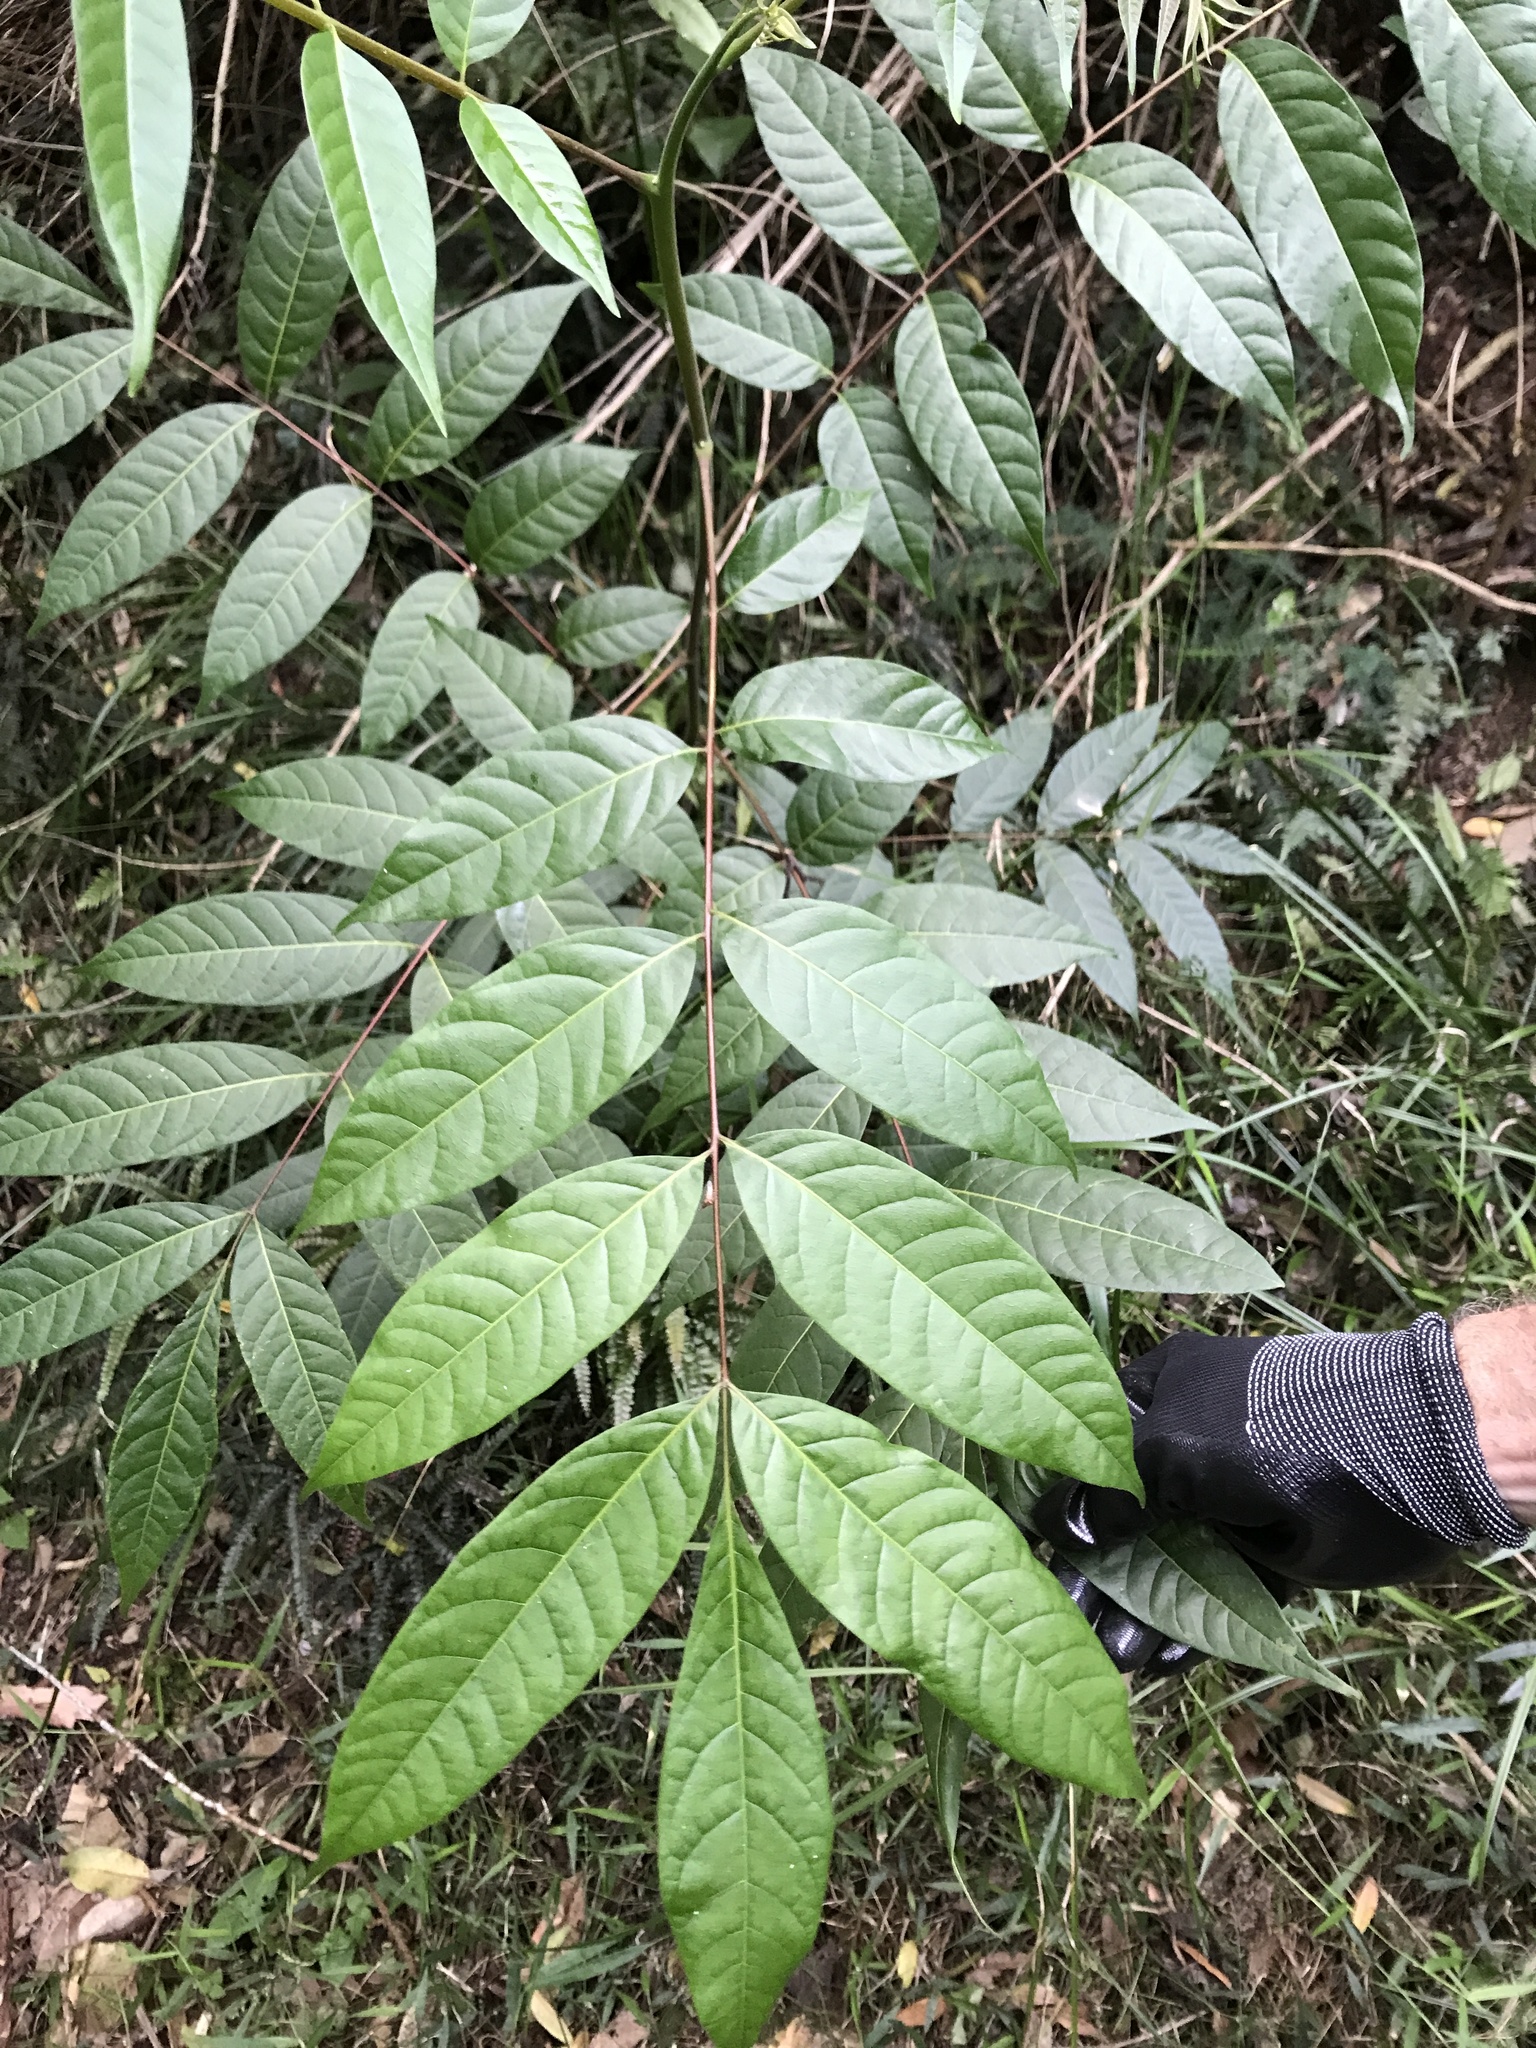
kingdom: Plantae
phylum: Tracheophyta
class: Magnoliopsida
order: Sapindales
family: Meliaceae
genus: Toona
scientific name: Toona ciliata
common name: Australian redcedar
